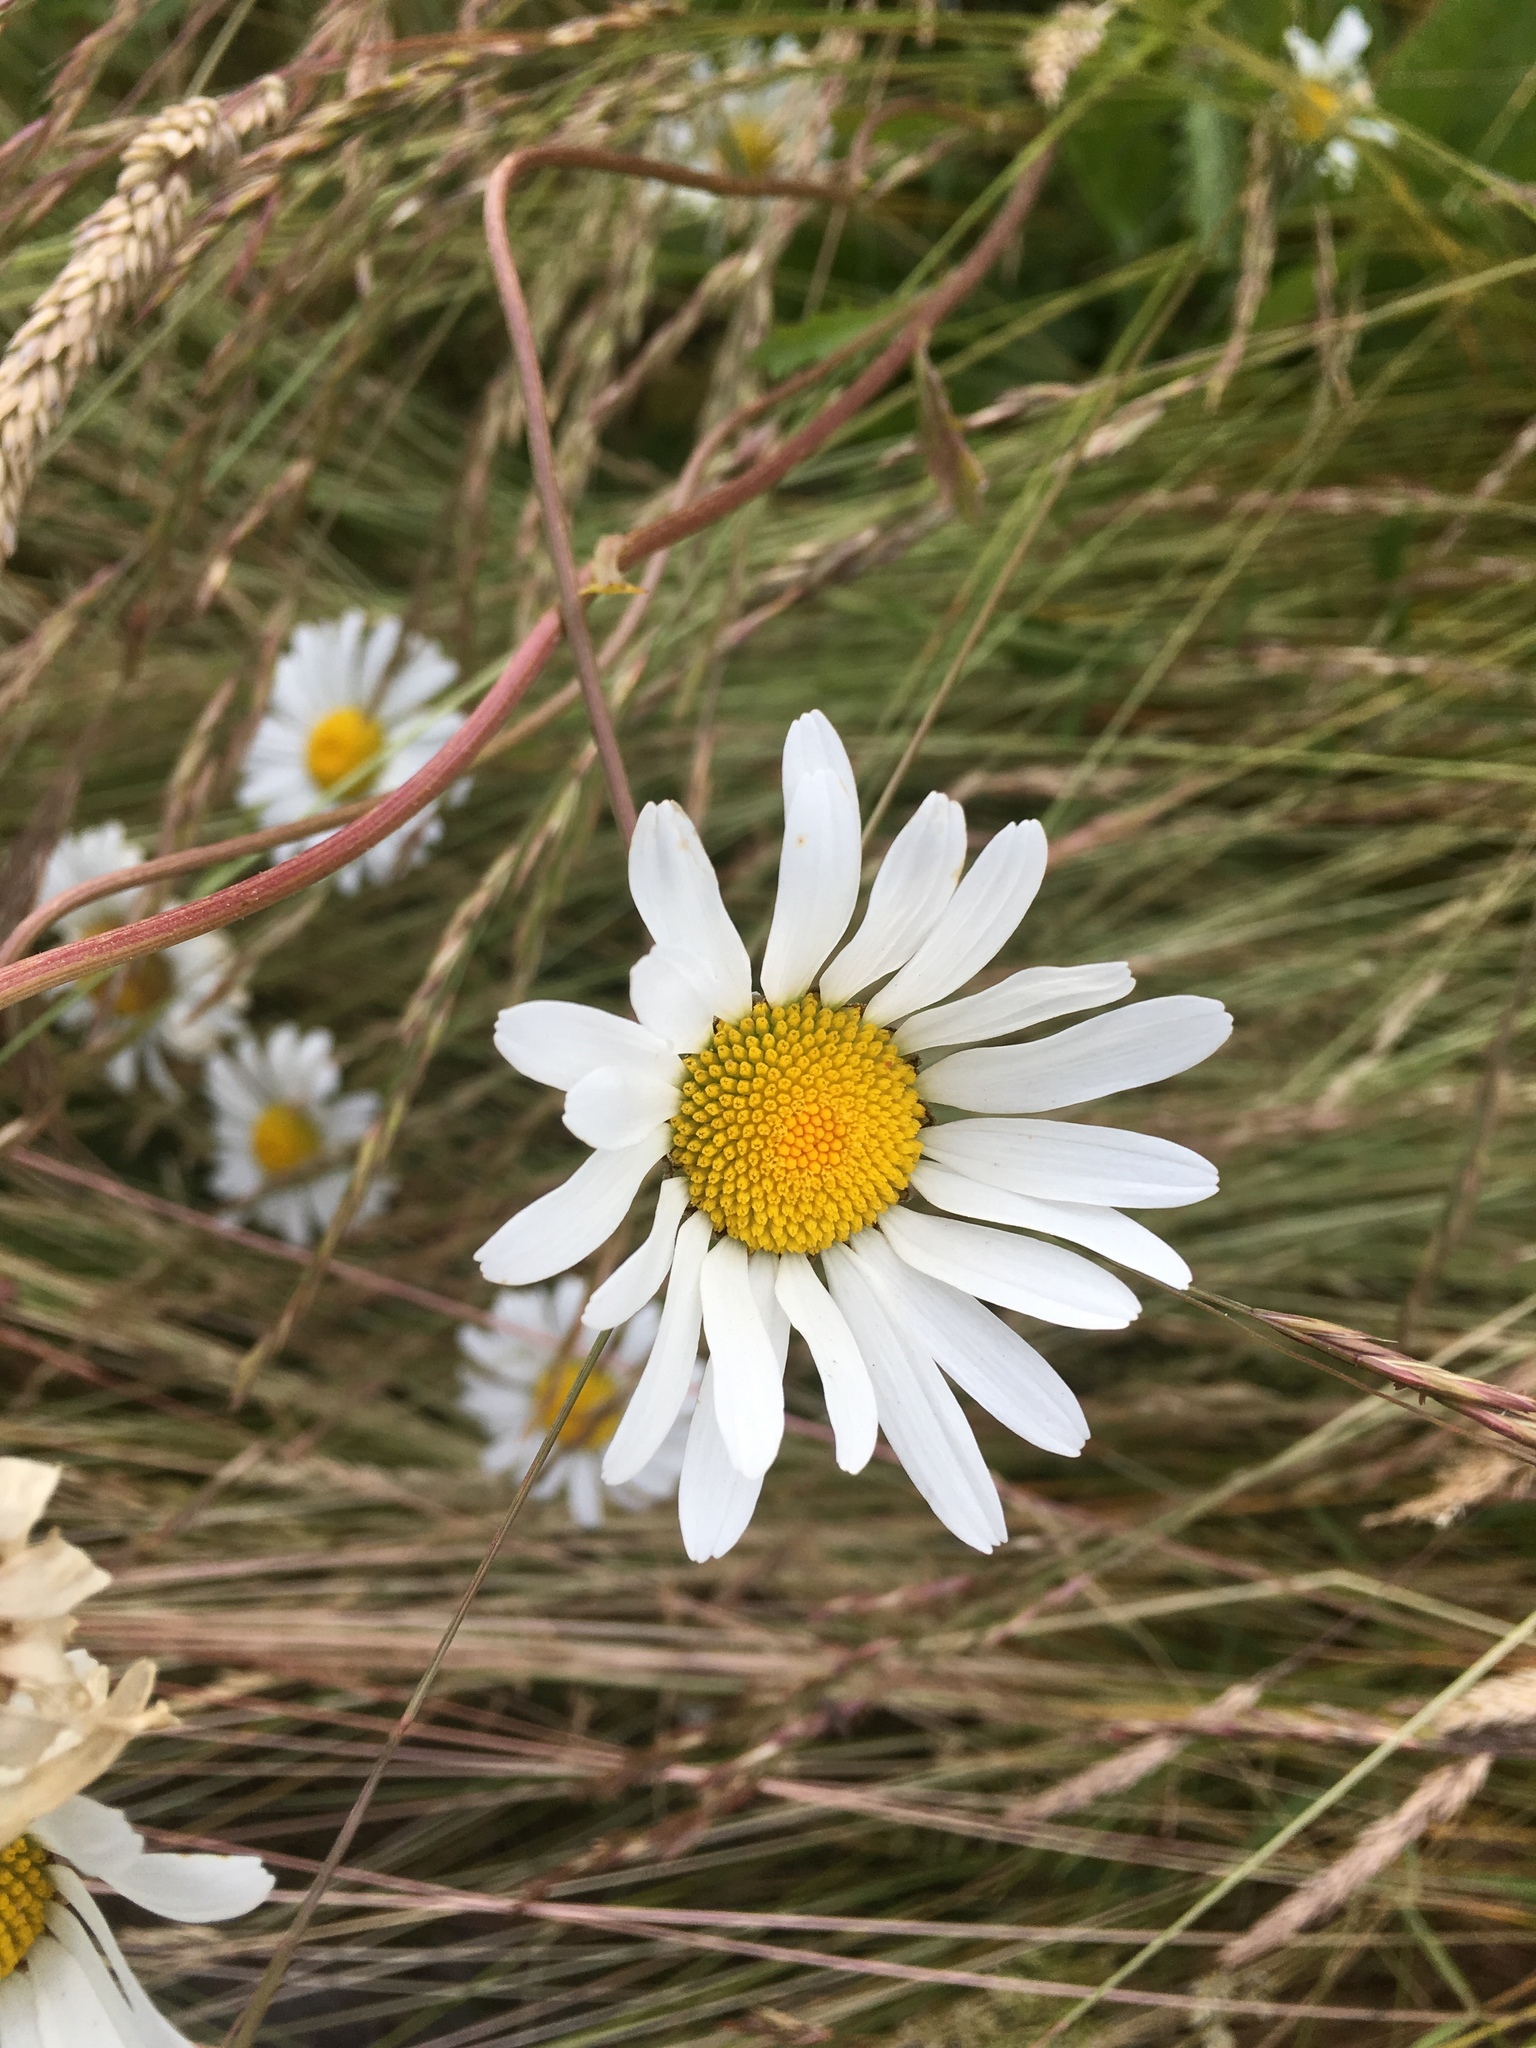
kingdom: Plantae
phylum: Tracheophyta
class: Magnoliopsida
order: Asterales
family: Asteraceae
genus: Leucanthemum
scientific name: Leucanthemum vulgare
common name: Oxeye daisy
